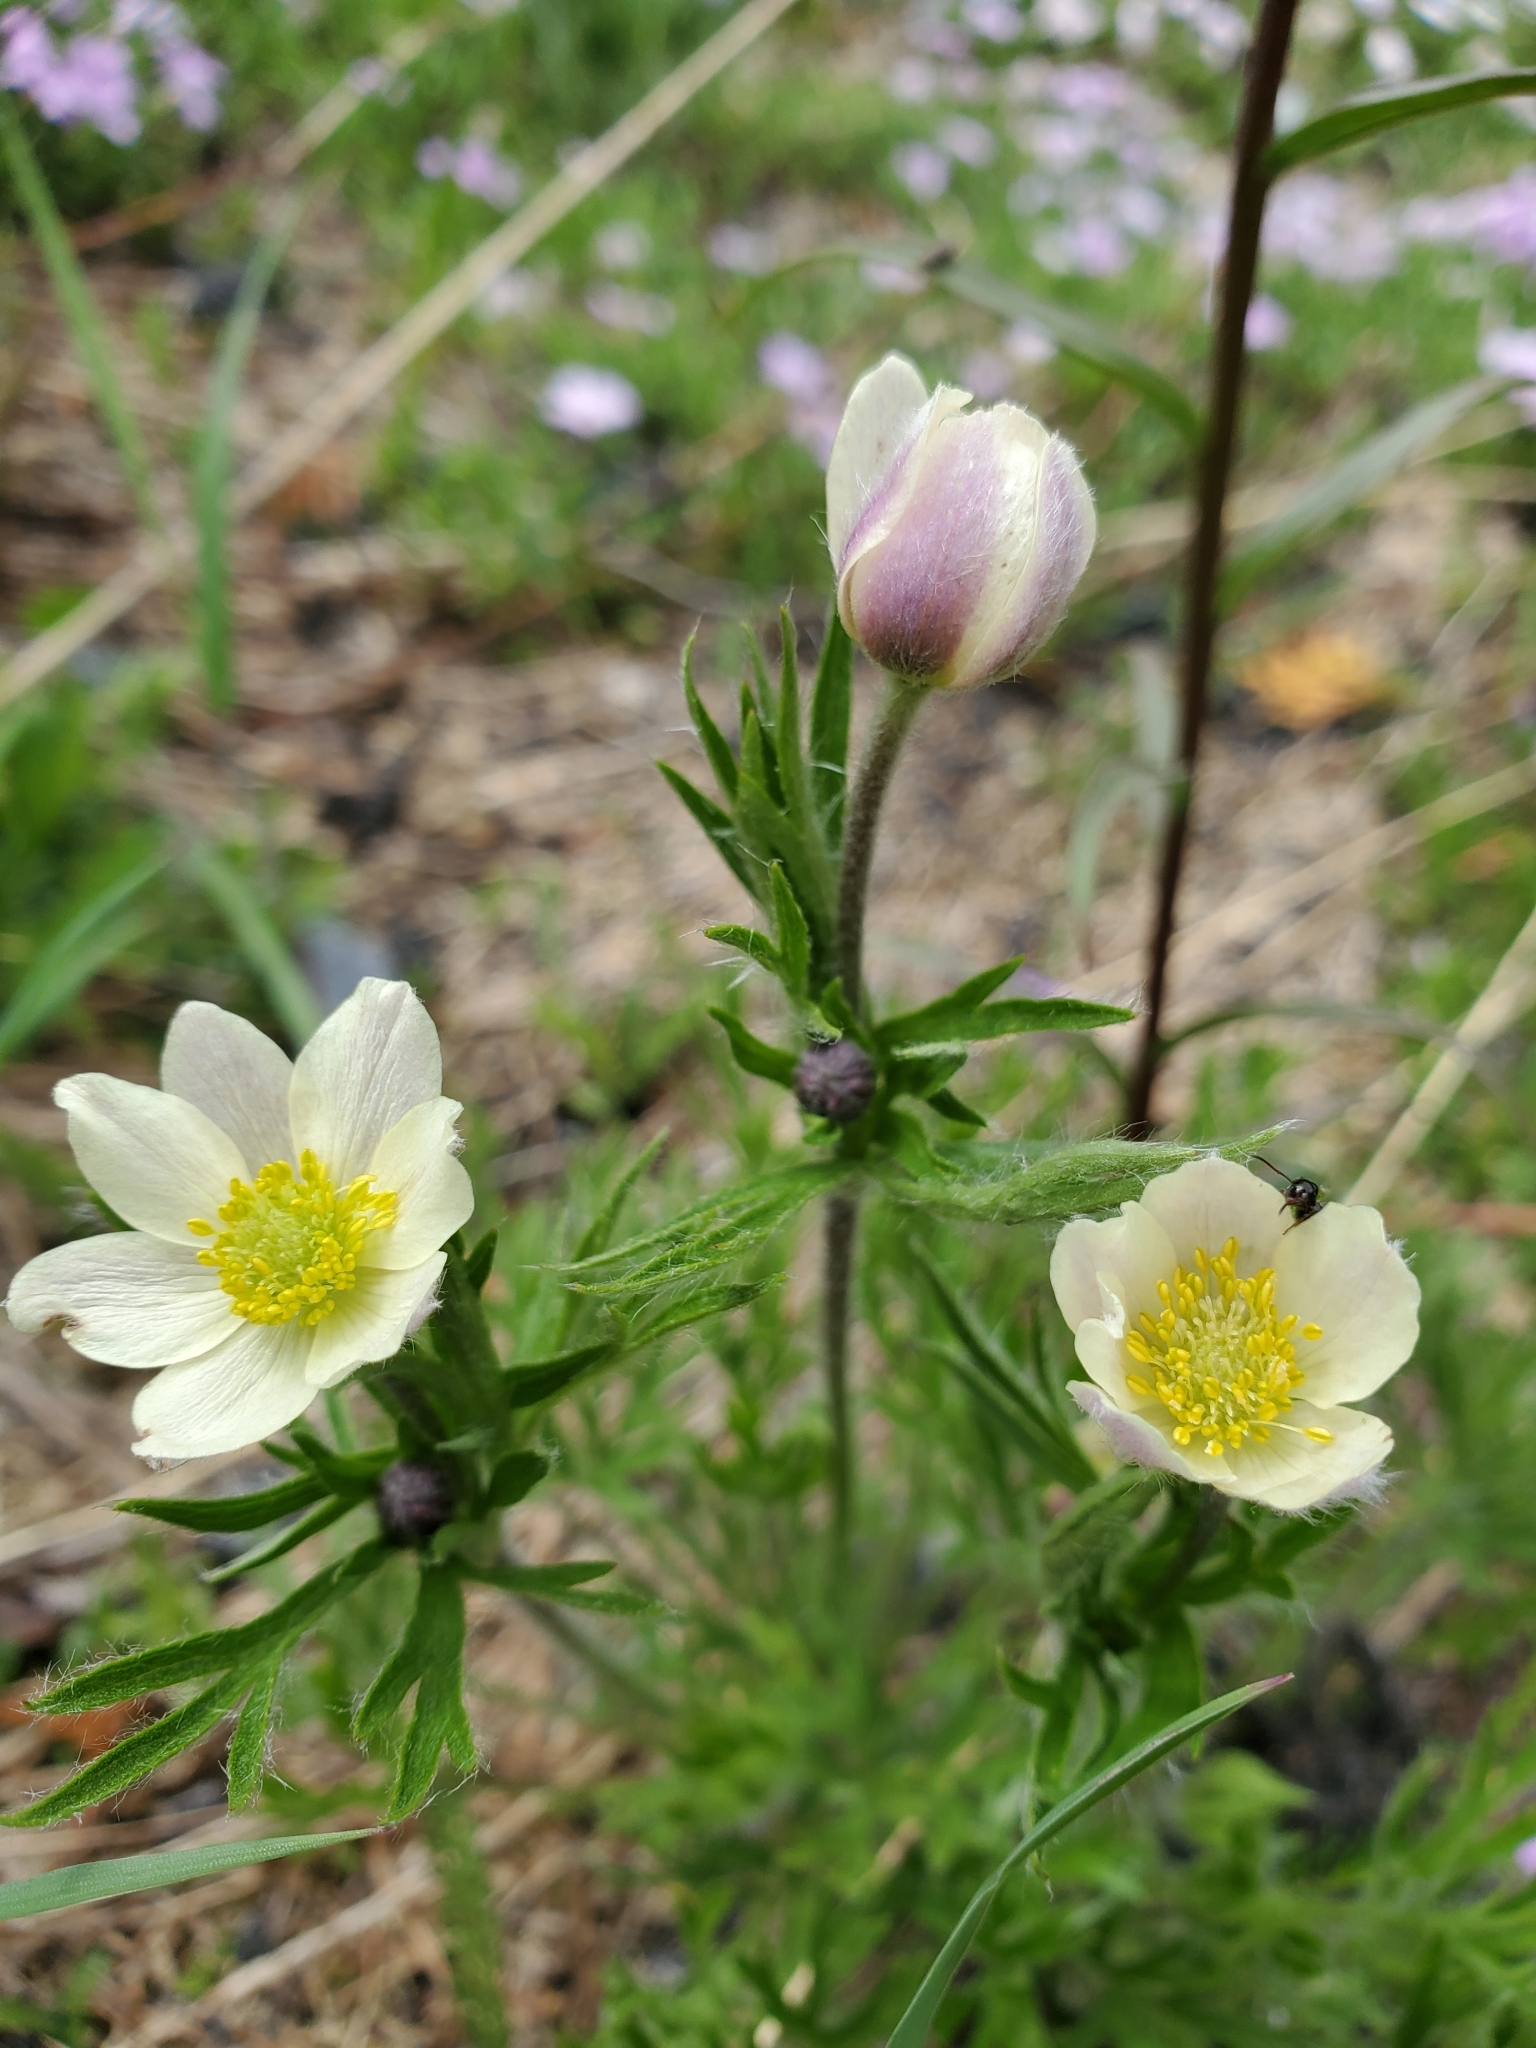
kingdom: Plantae
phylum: Tracheophyta
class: Magnoliopsida
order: Ranunculales
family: Ranunculaceae
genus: Anemone
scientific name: Anemone multifida
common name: Bird's-foot anemone
